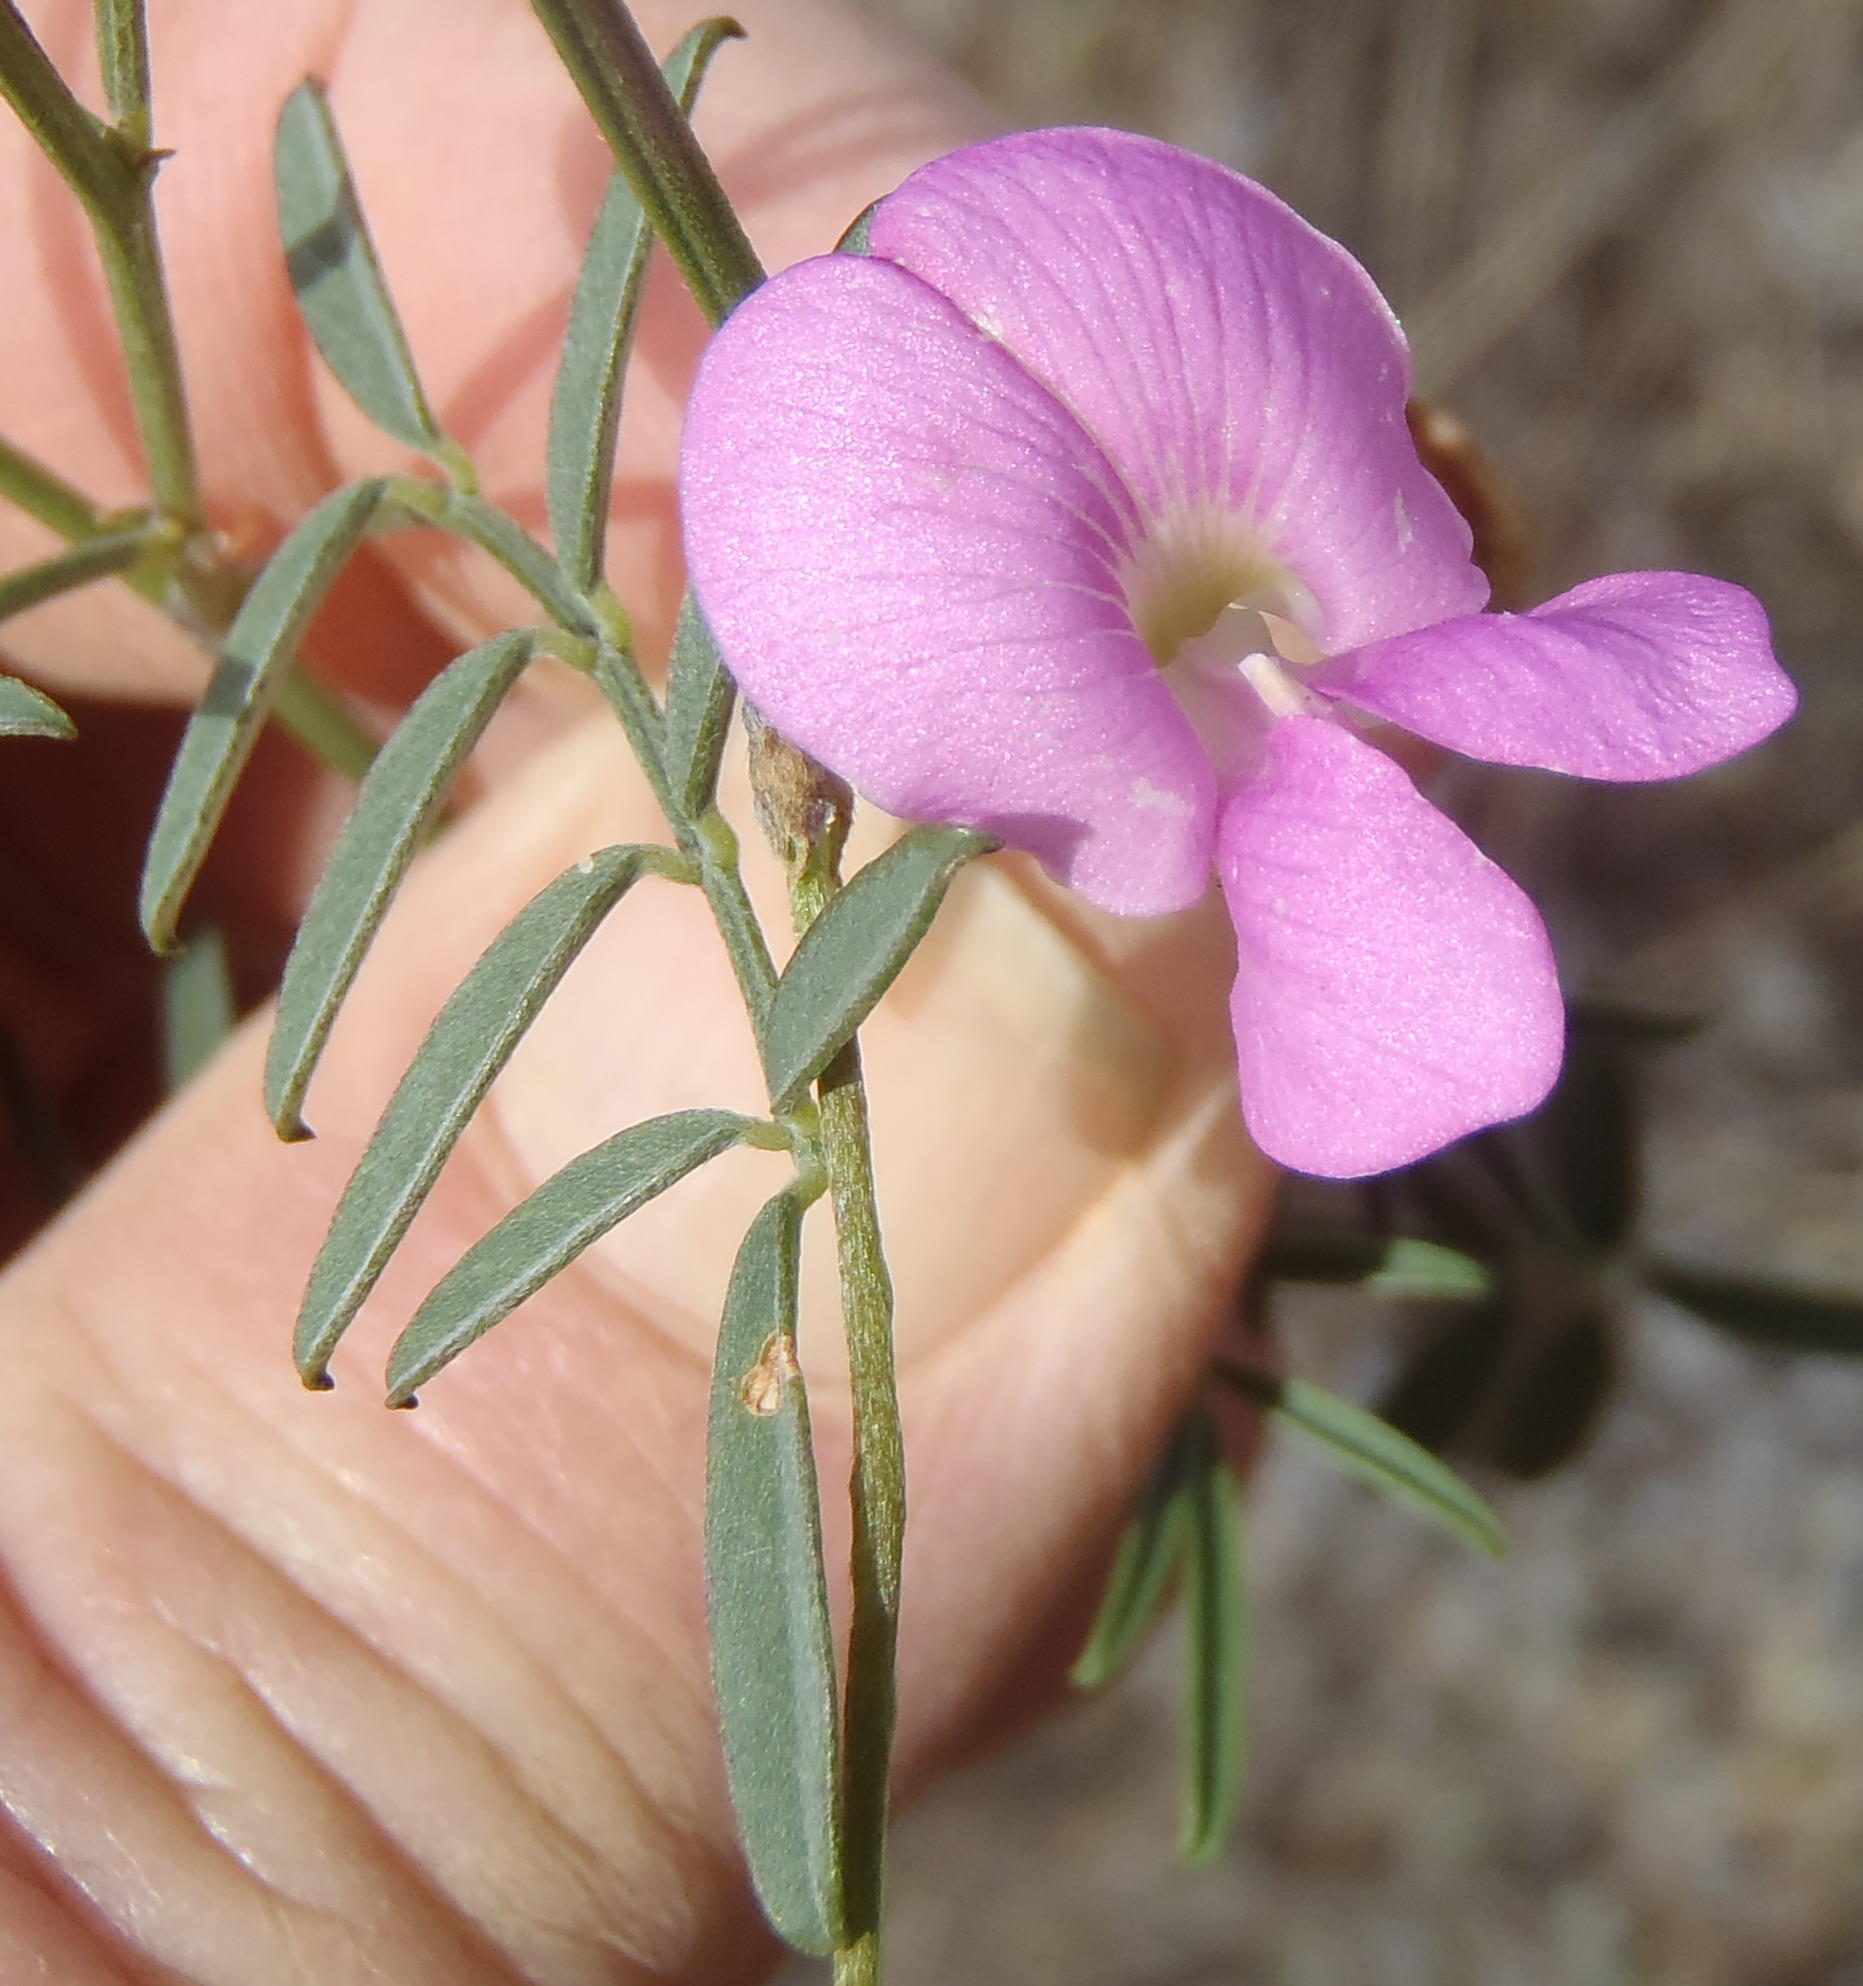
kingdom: Plantae
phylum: Tracheophyta
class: Magnoliopsida
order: Fabales
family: Fabaceae
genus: Tephrosia
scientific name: Tephrosia capensis
